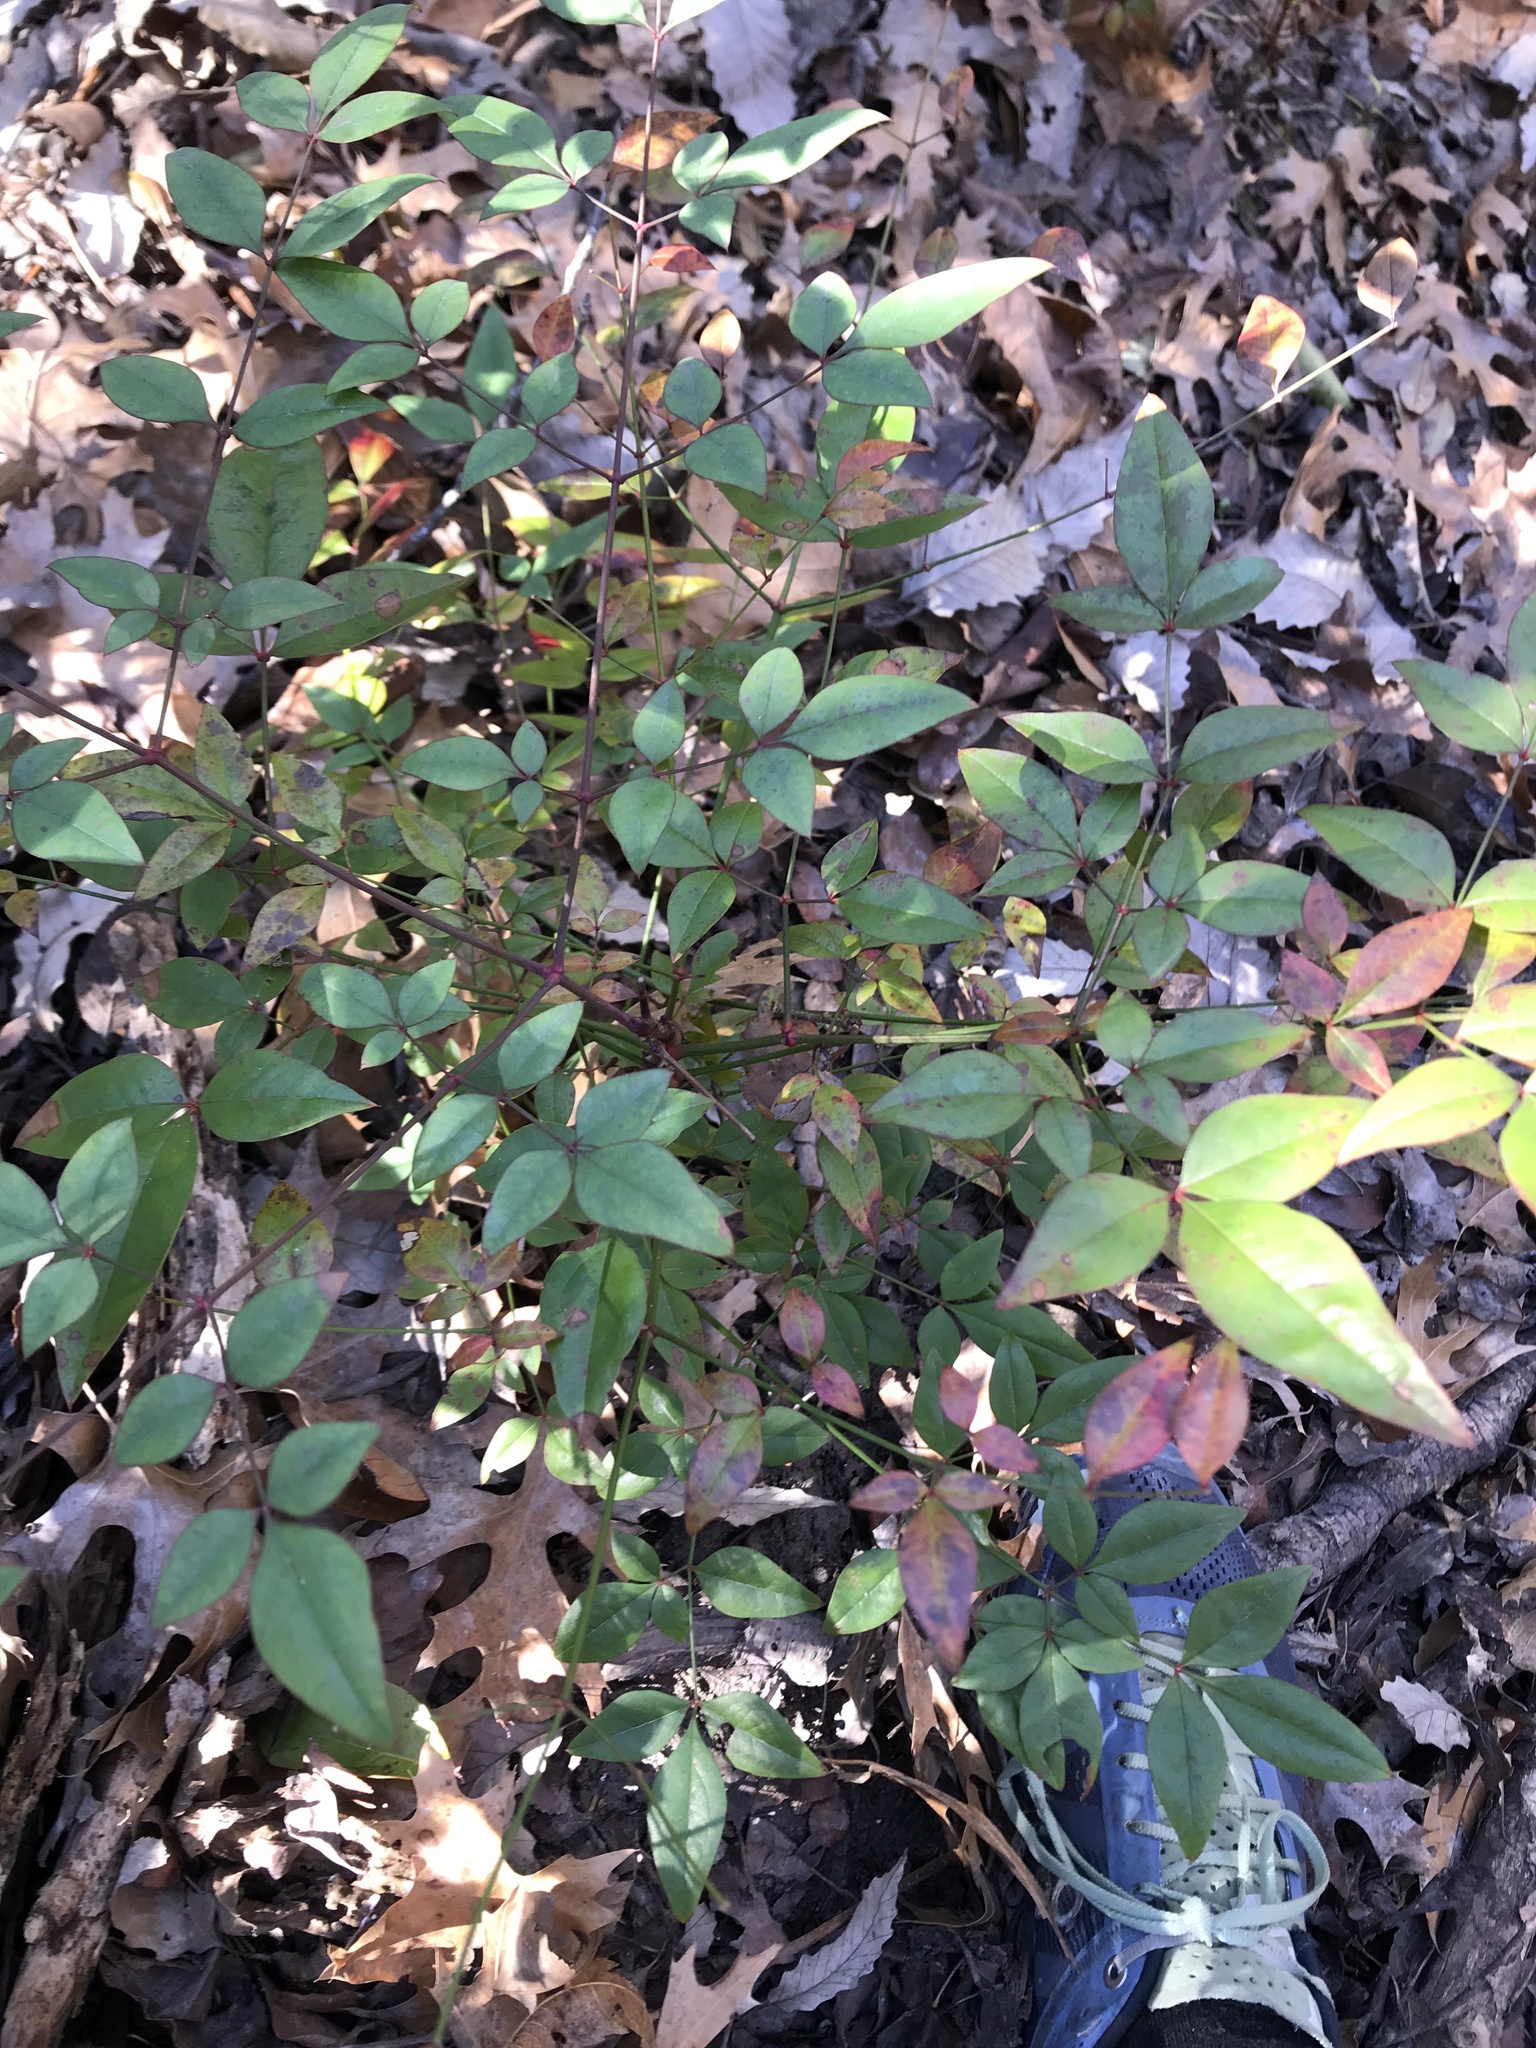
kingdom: Plantae
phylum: Tracheophyta
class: Magnoliopsida
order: Ranunculales
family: Berberidaceae
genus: Nandina
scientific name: Nandina domestica
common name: Sacred bamboo
